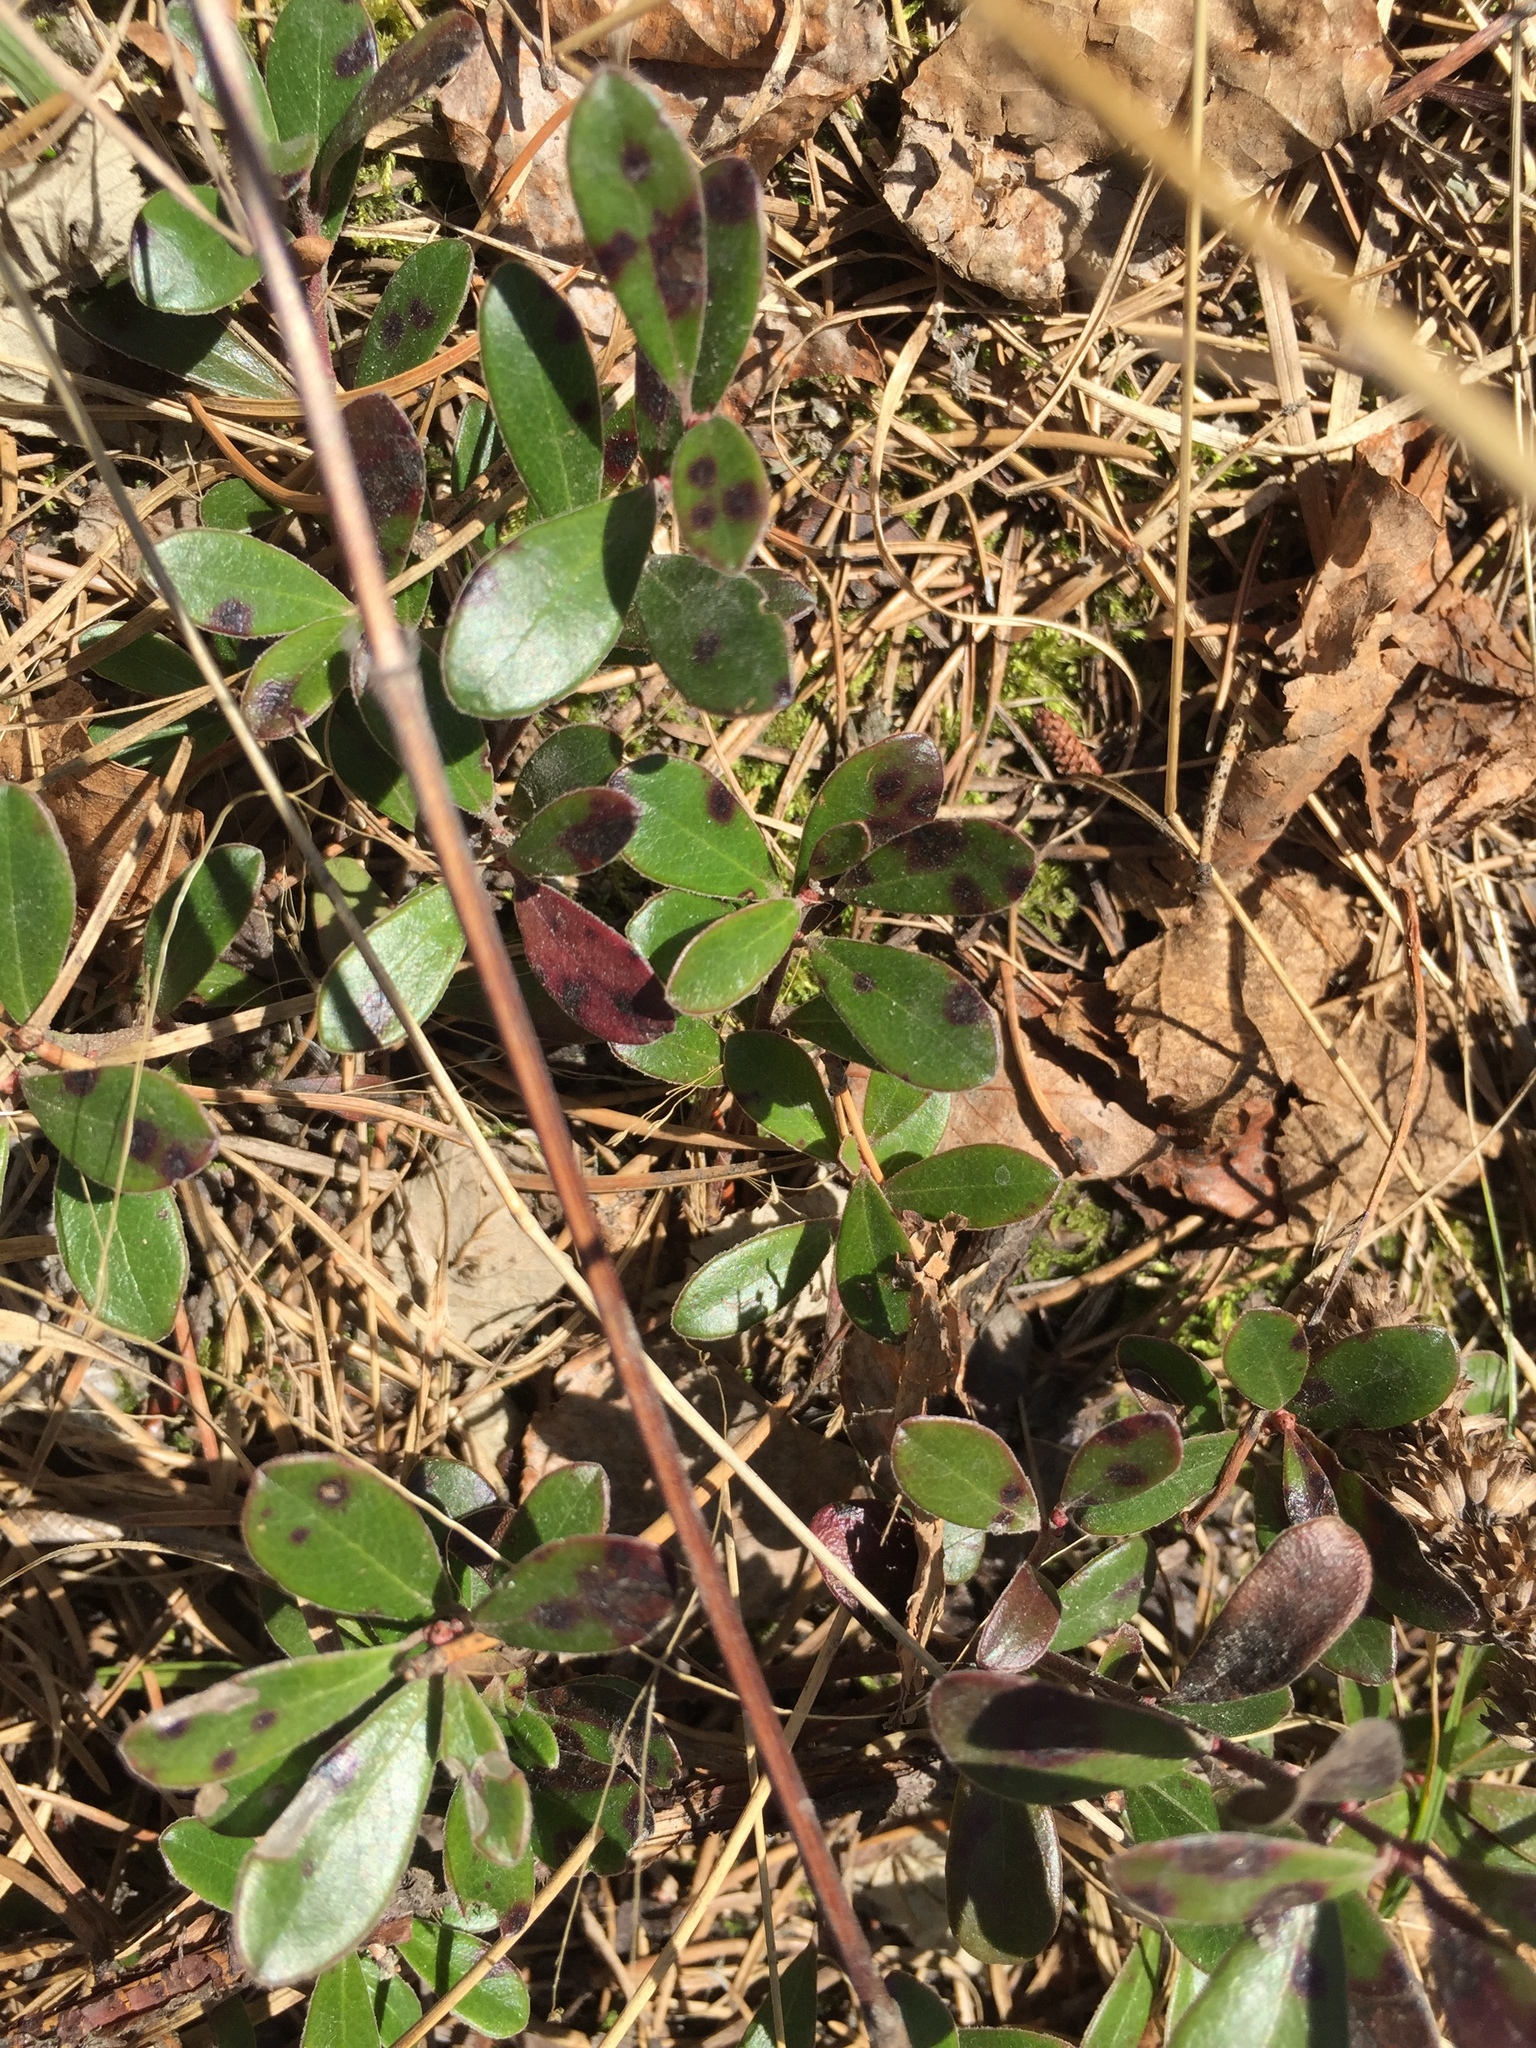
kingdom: Plantae
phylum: Tracheophyta
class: Magnoliopsida
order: Ericales
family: Ericaceae
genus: Arctostaphylos
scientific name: Arctostaphylos uva-ursi
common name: Bearberry
